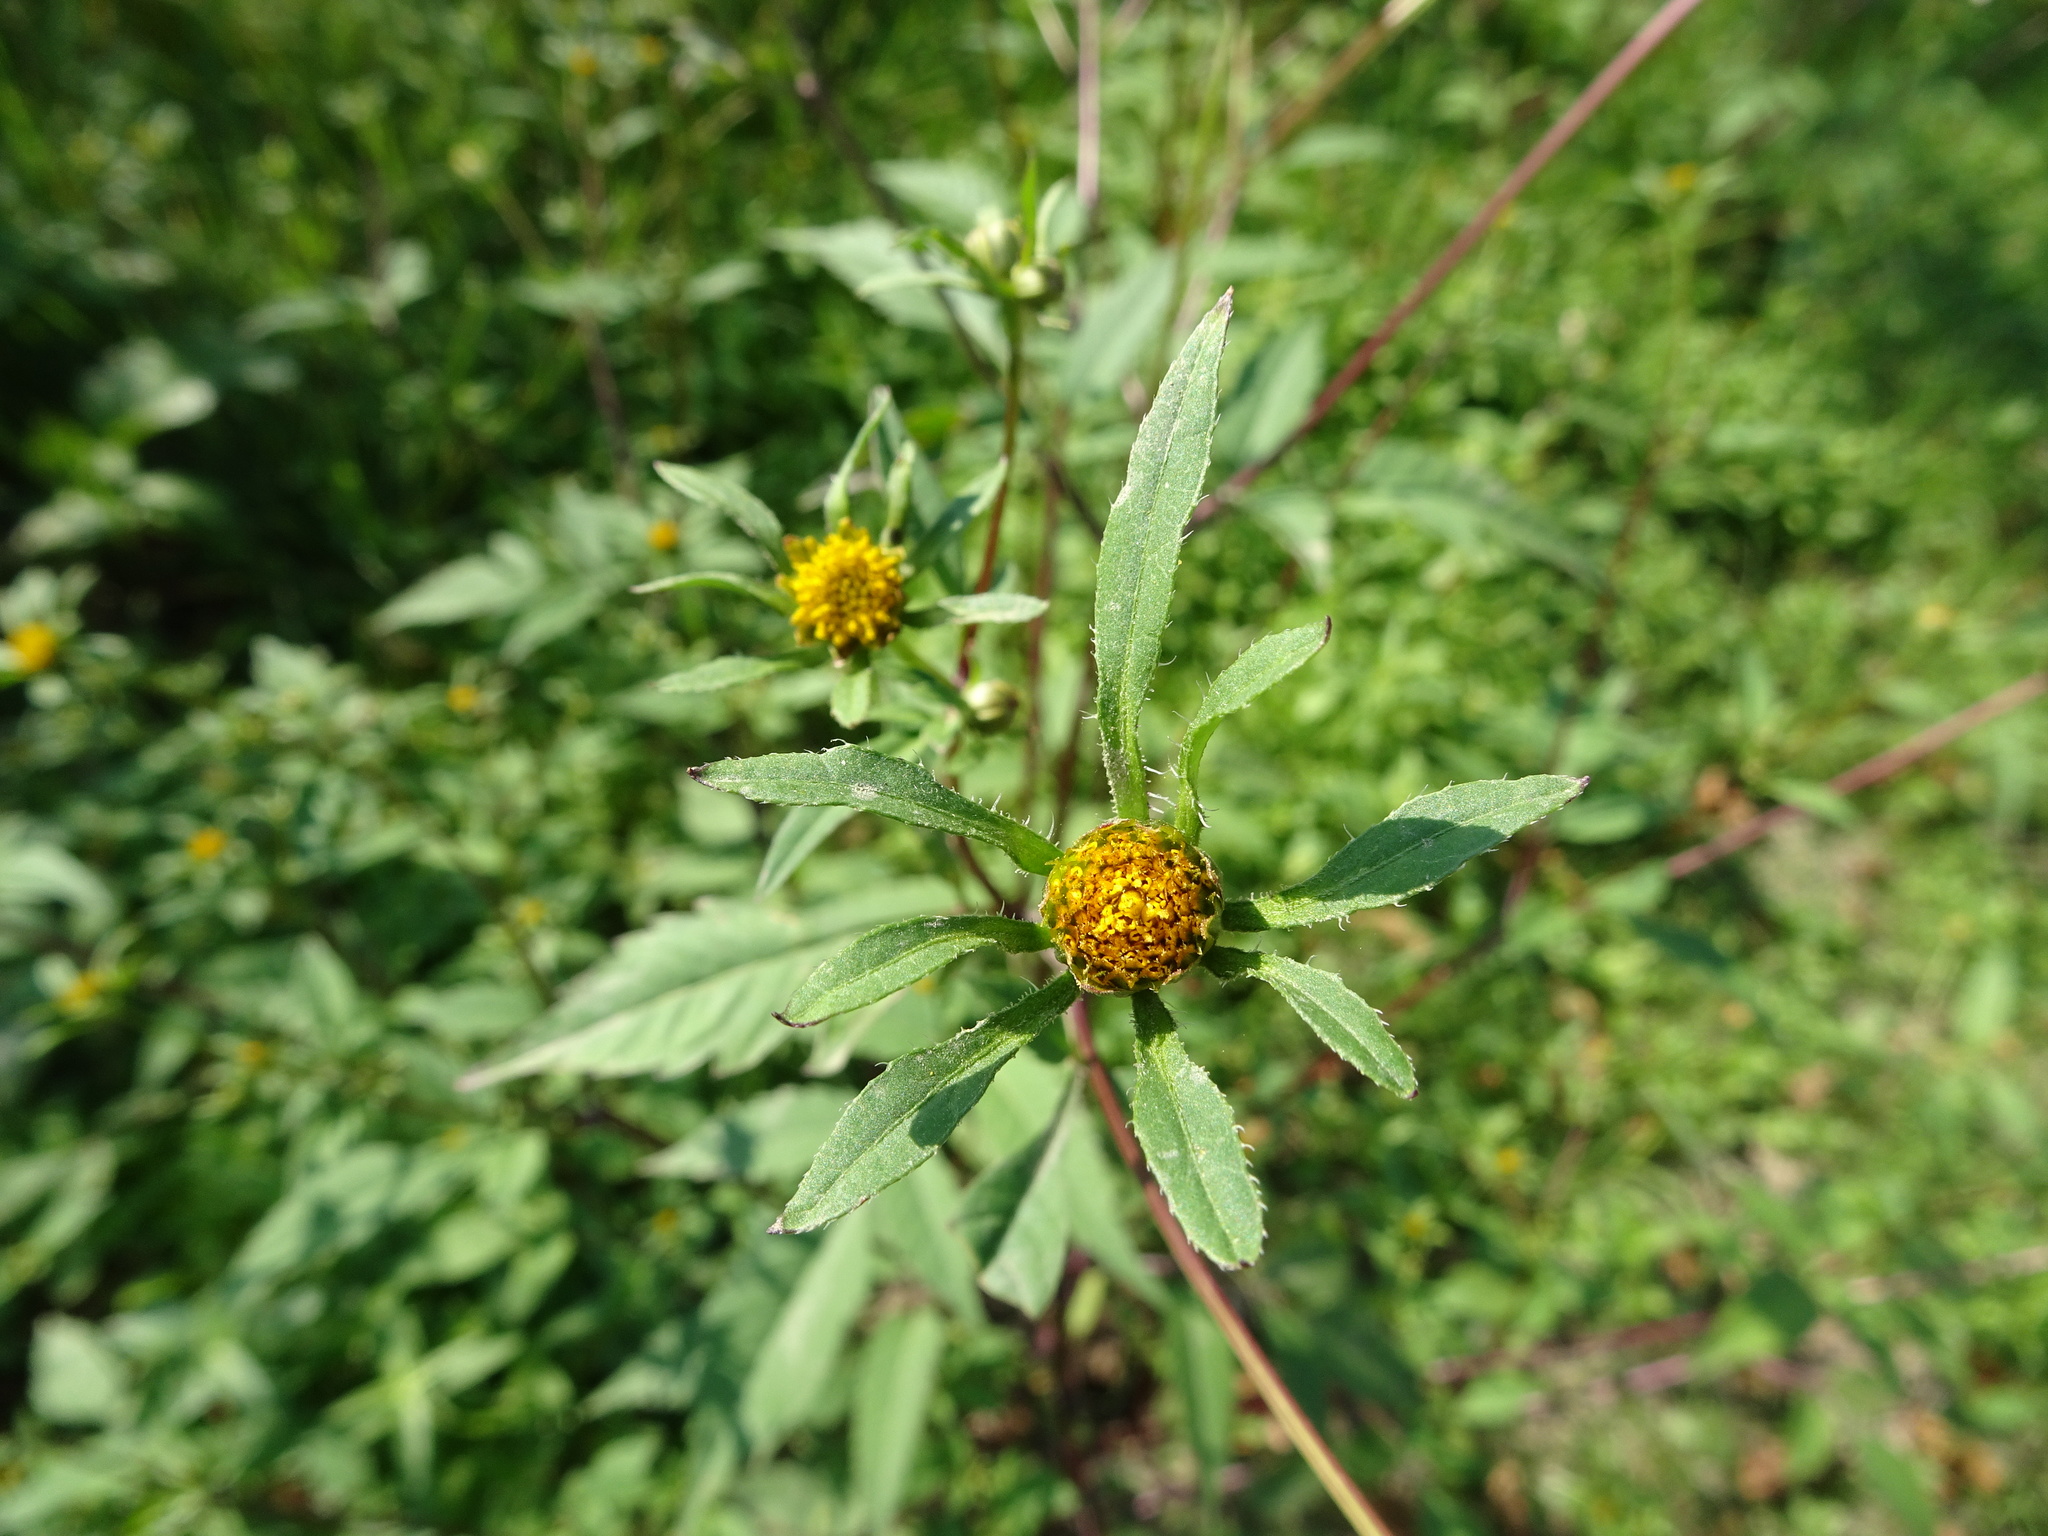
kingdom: Plantae
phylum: Tracheophyta
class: Magnoliopsida
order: Asterales
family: Asteraceae
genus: Bidens
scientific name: Bidens frondosa
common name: Beggarticks
